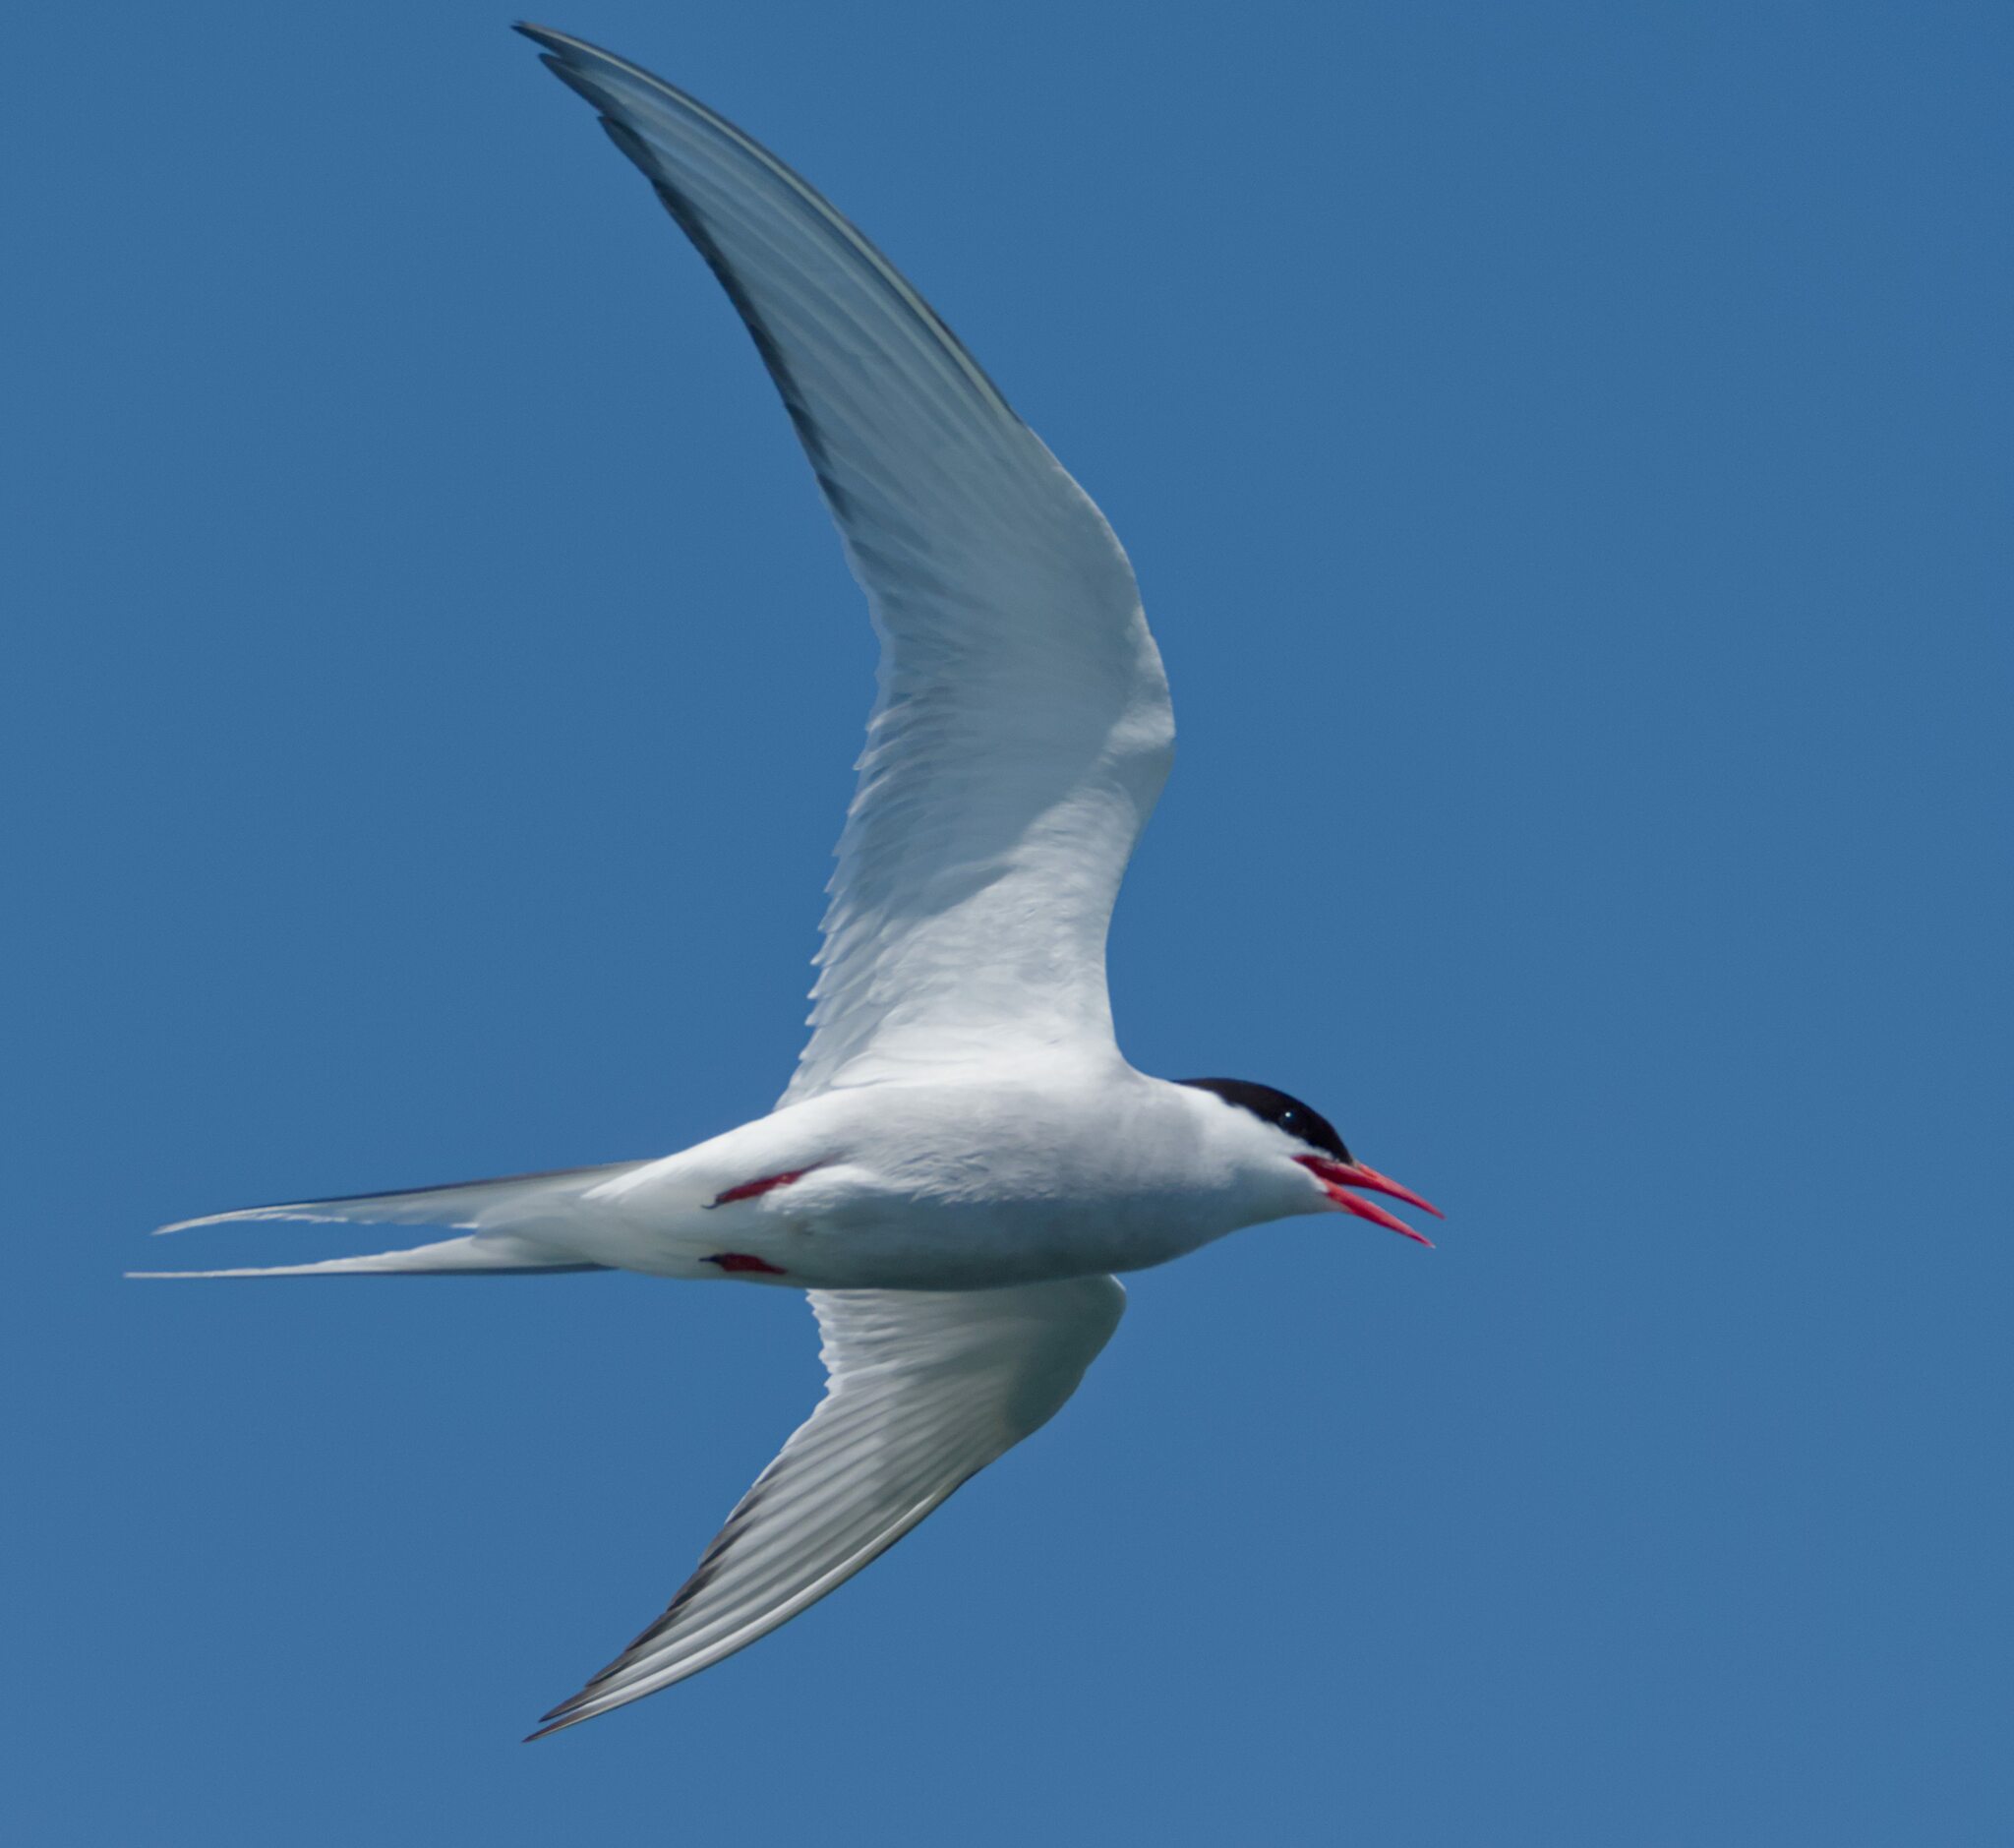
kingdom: Animalia
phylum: Chordata
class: Aves
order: Charadriiformes
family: Laridae
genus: Sterna
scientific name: Sterna paradisaea
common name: Arctic tern
